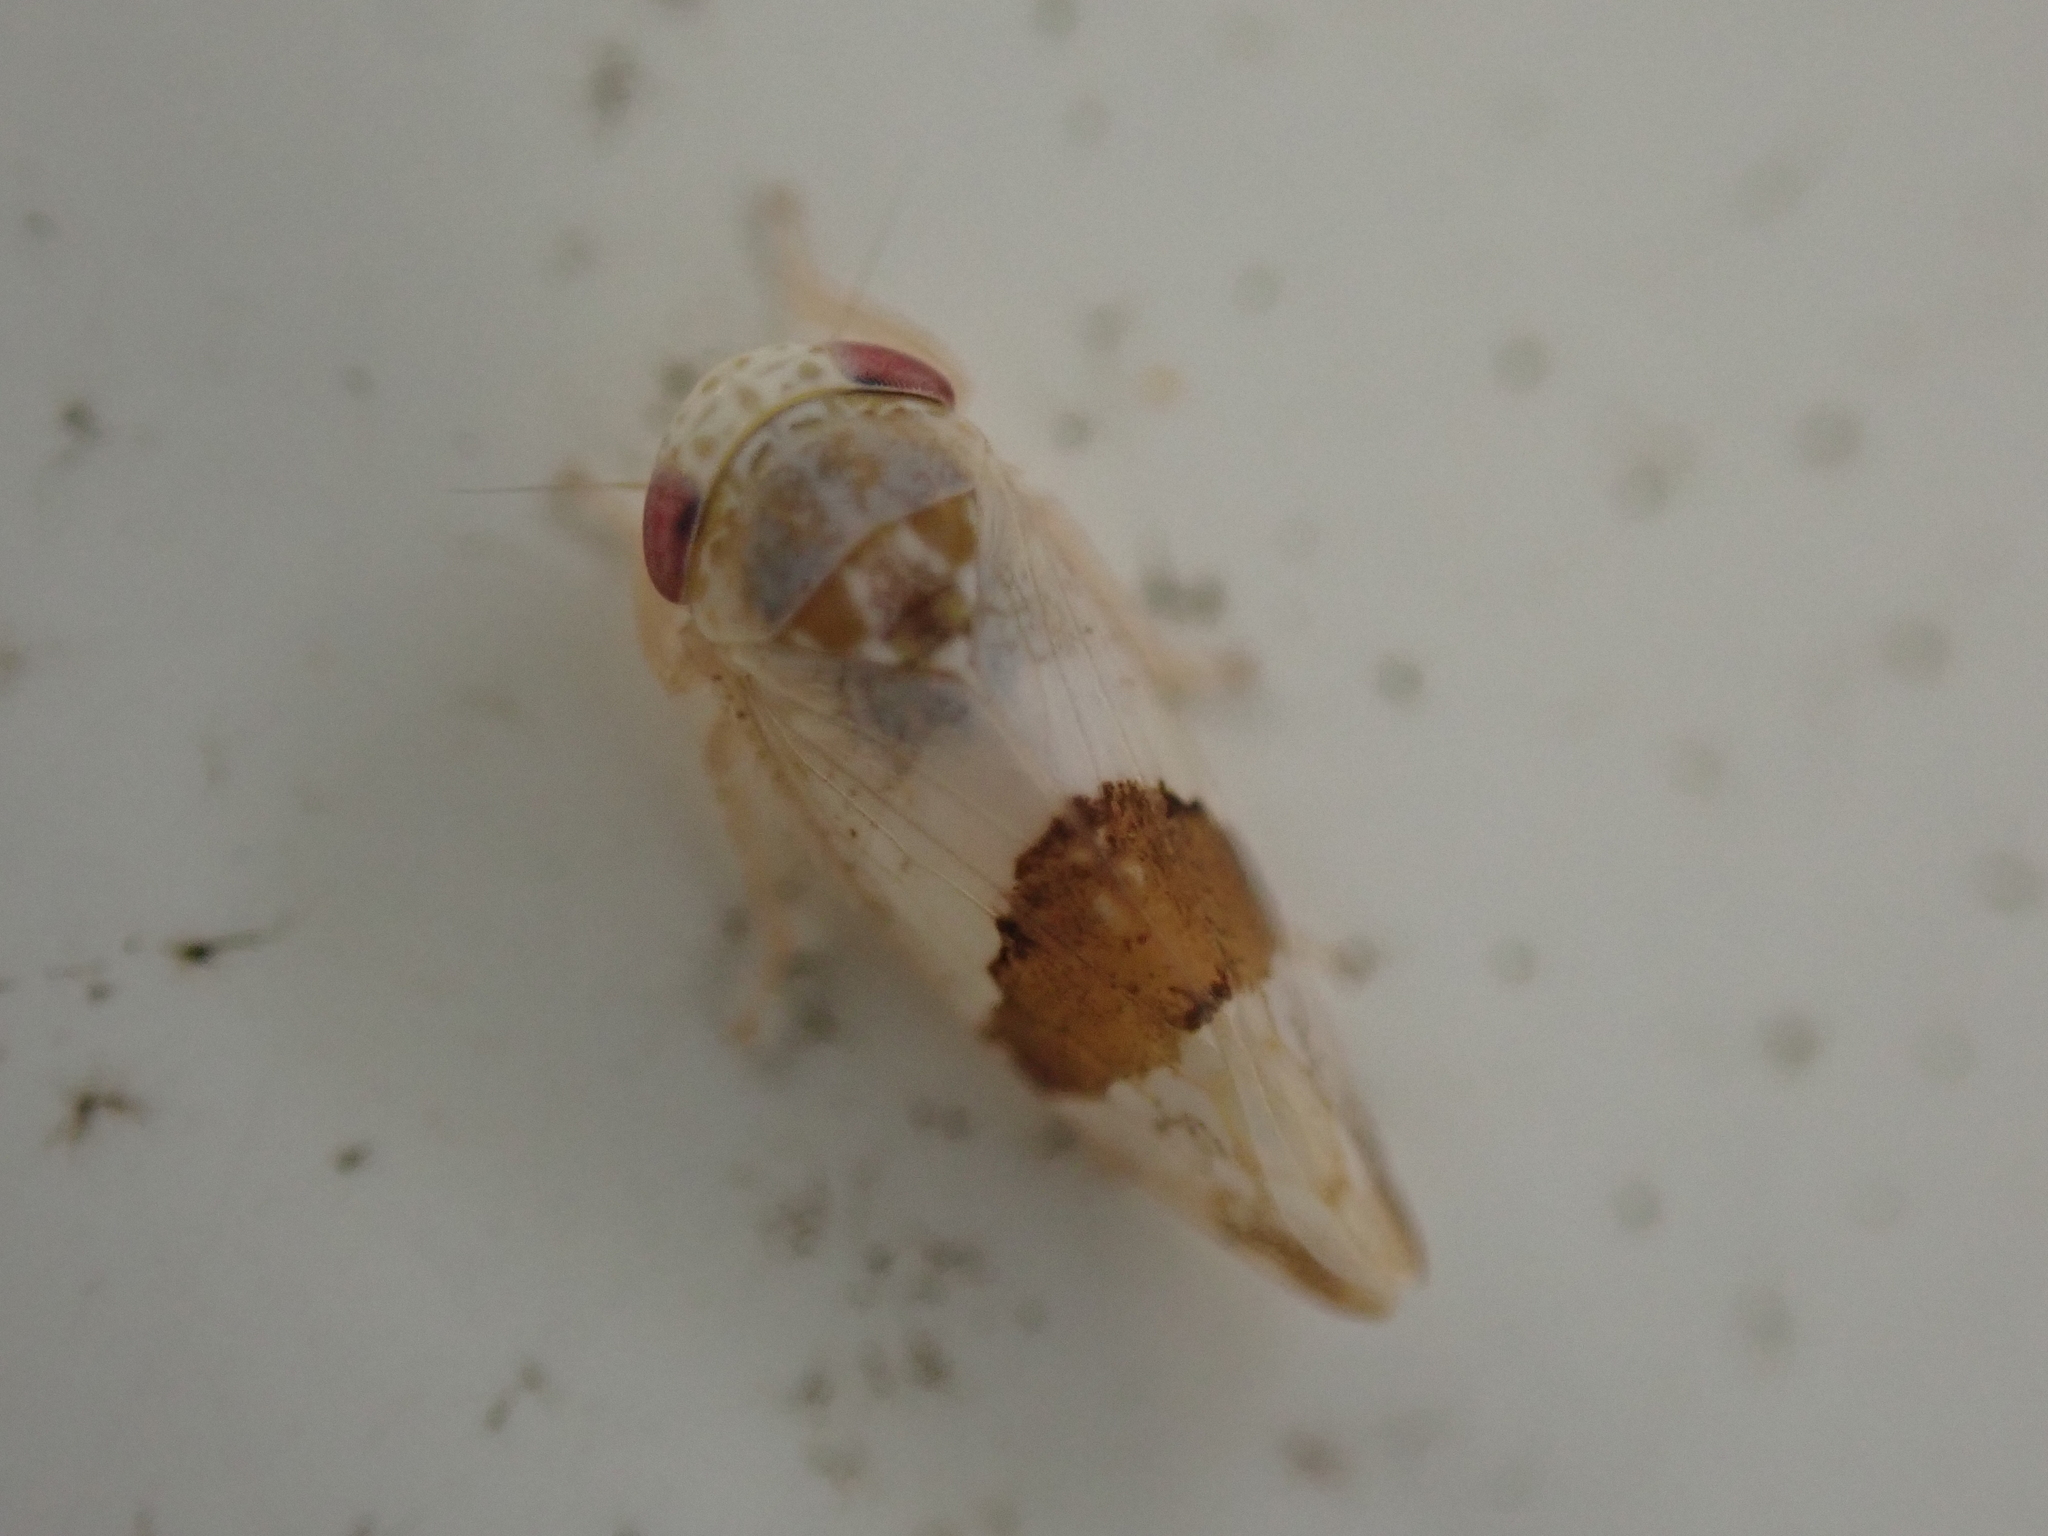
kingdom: Animalia
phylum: Arthropoda
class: Insecta
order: Hemiptera
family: Cicadellidae
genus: Norvellina
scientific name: Norvellina seminuda
